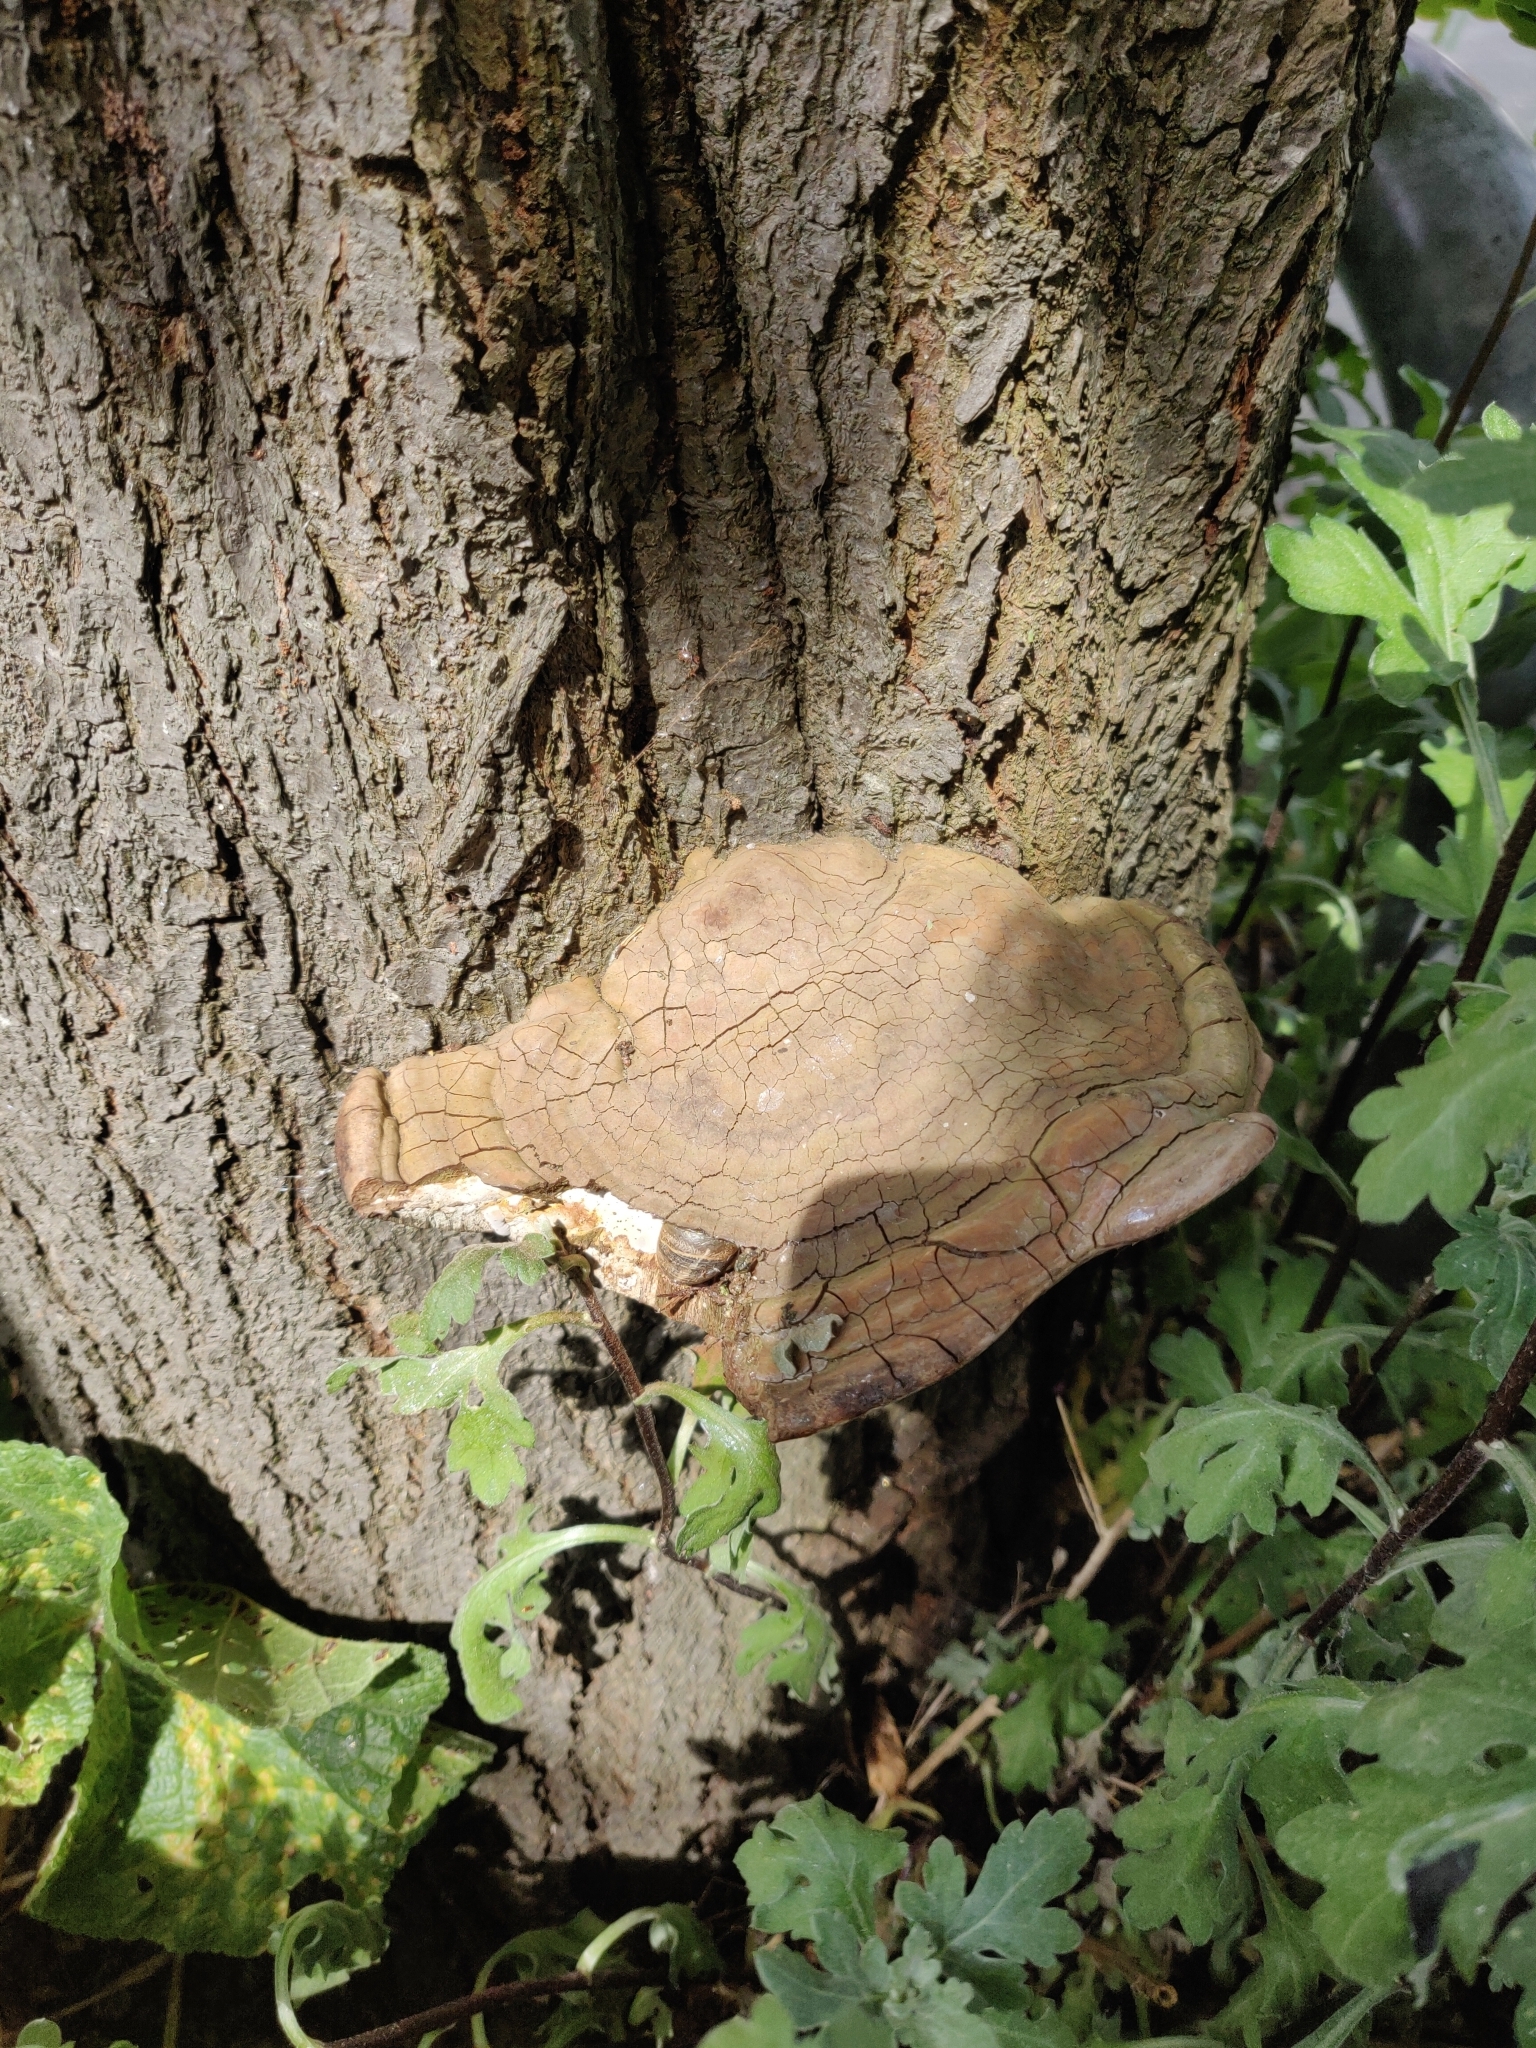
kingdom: Fungi
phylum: Basidiomycota
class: Agaricomycetes
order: Polyporales
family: Polyporaceae
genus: Ganoderma
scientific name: Ganoderma applanatum
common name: Artist's bracket
